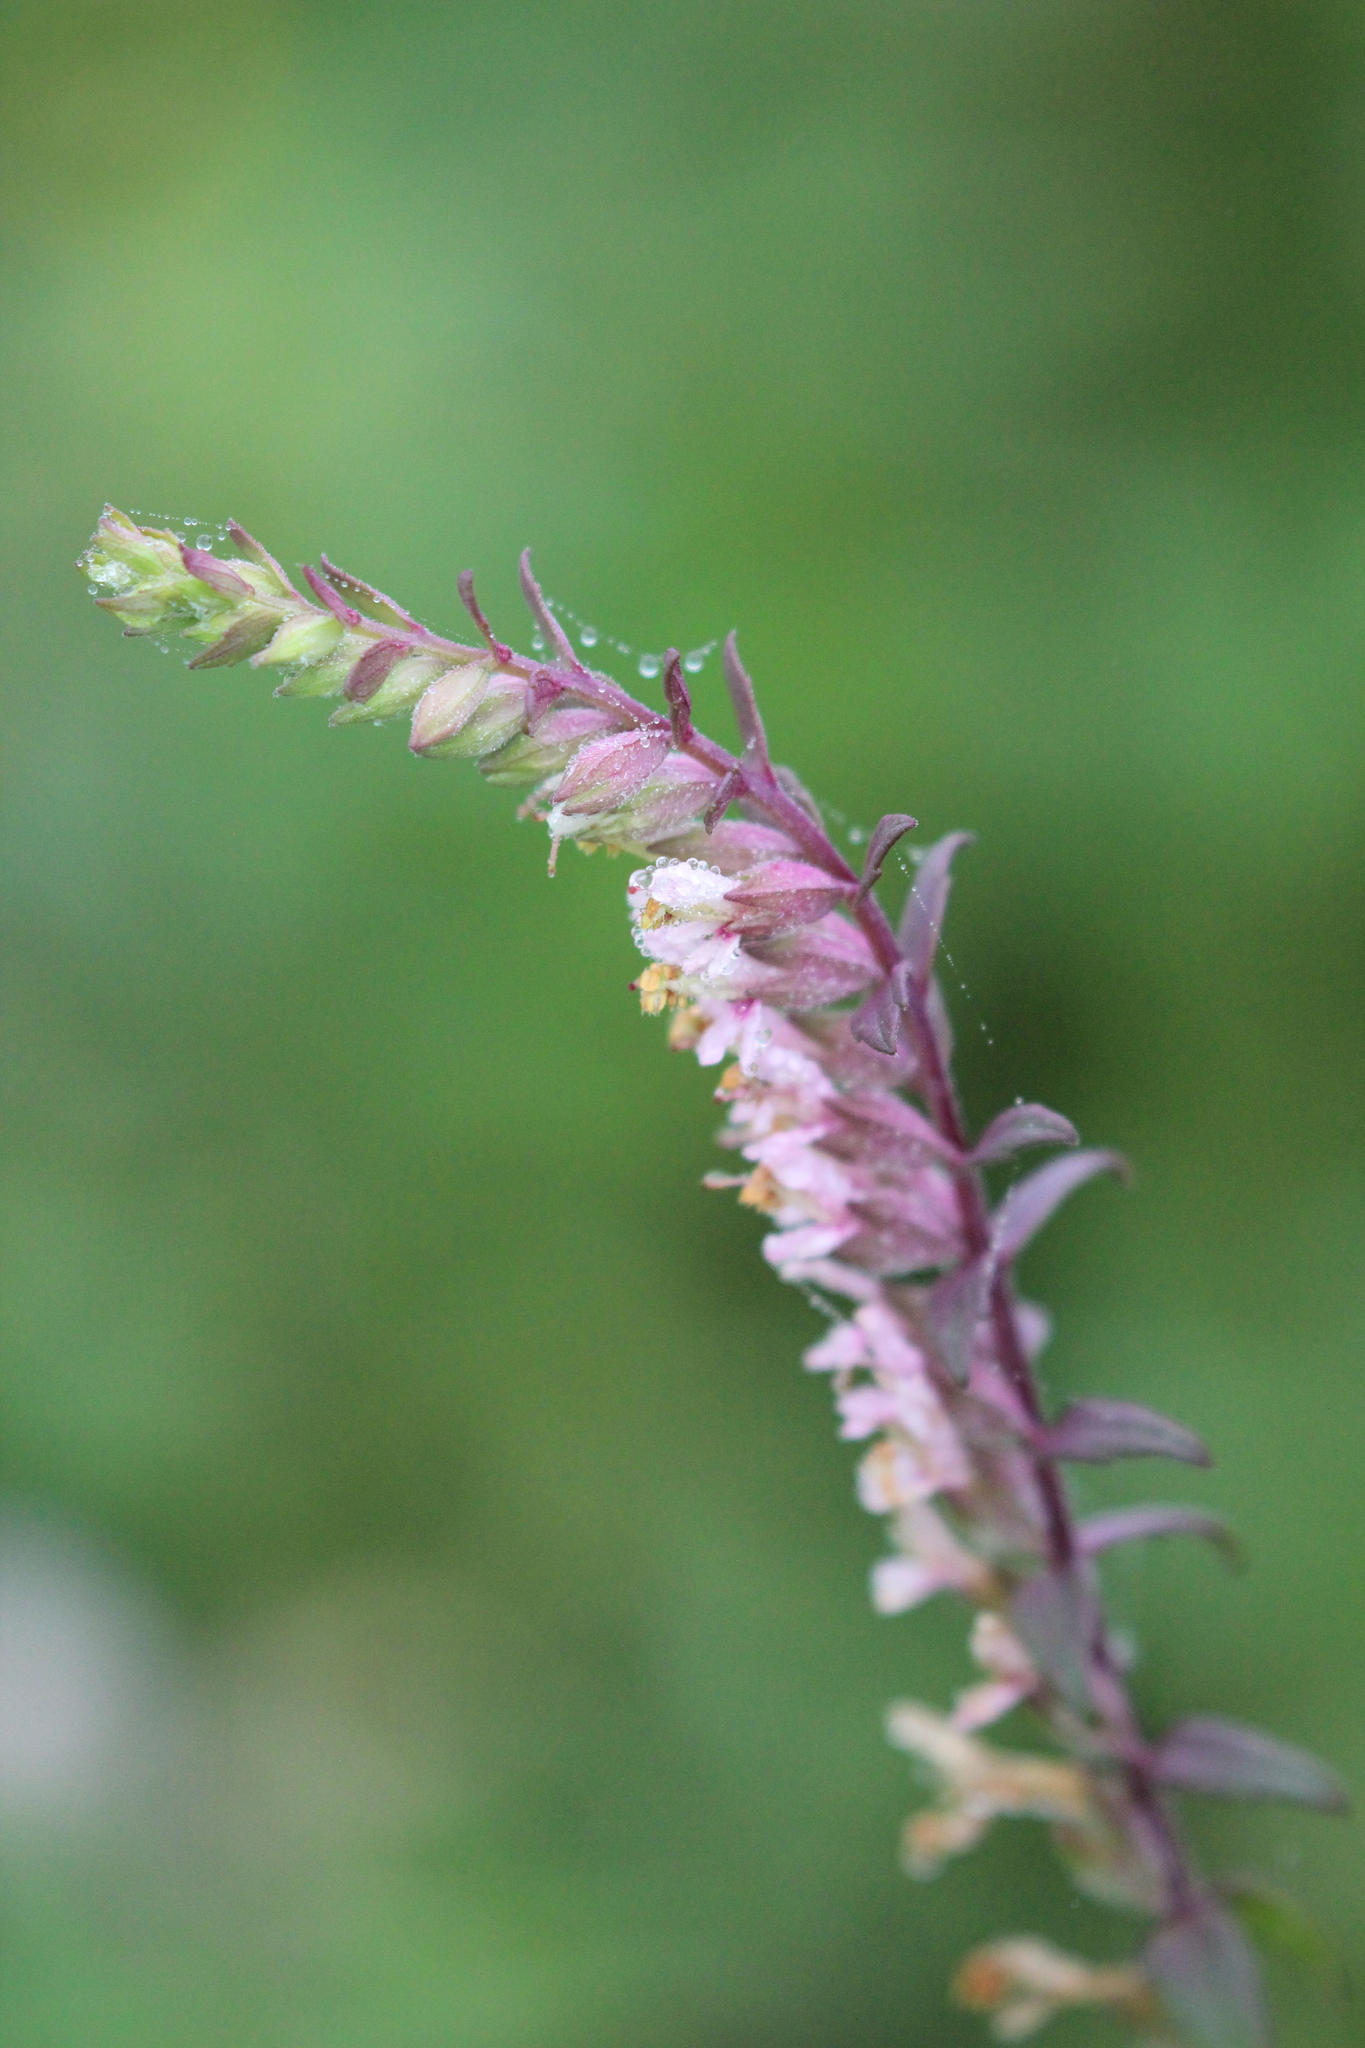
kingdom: Plantae
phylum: Tracheophyta
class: Magnoliopsida
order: Lamiales
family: Orobanchaceae
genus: Odontites
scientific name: Odontites vulgaris
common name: Broomrape
